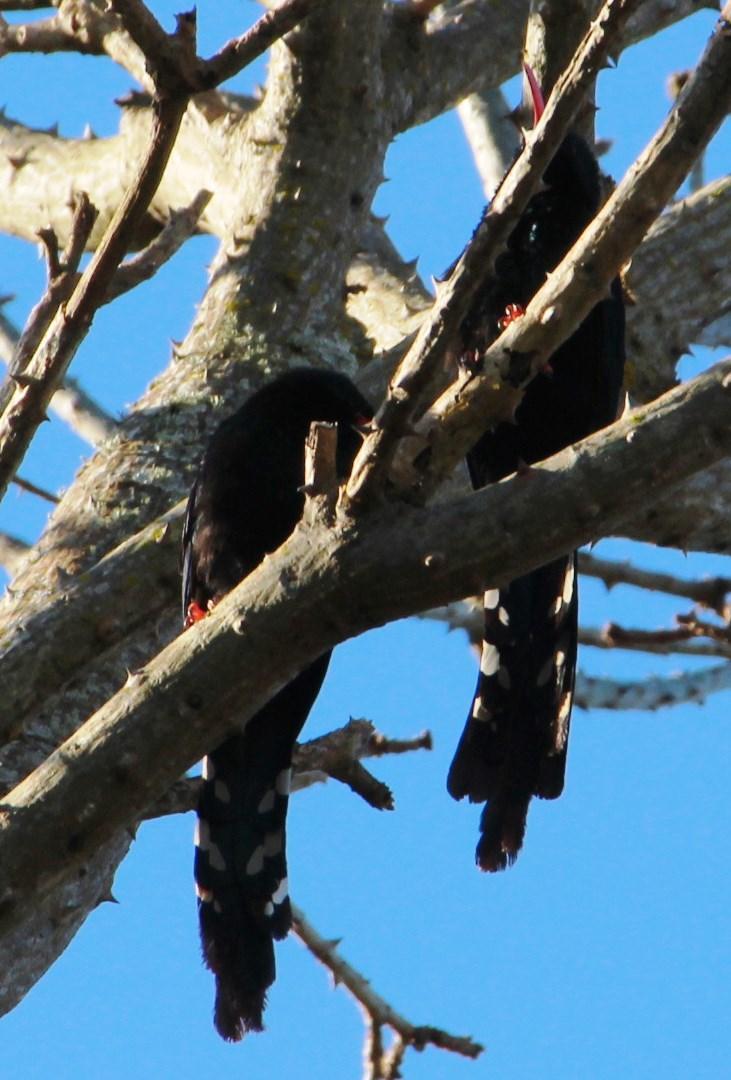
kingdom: Animalia
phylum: Chordata
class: Aves
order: Bucerotiformes
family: Phoeniculidae
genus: Phoeniculus
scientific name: Phoeniculus purpureus
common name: Green woodhoopoe
